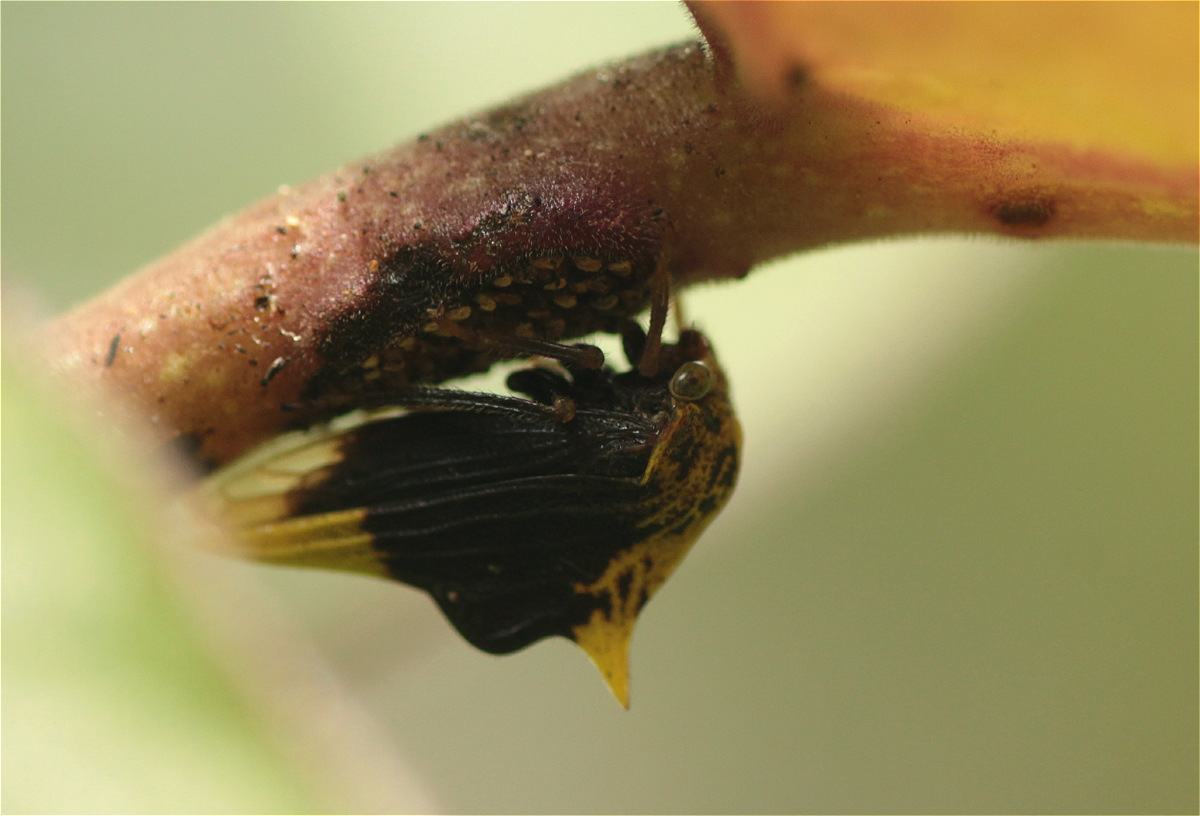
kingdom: Animalia
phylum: Arthropoda
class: Insecta
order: Hemiptera
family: Membracidae
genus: Ennya
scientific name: Ennya chrysura
